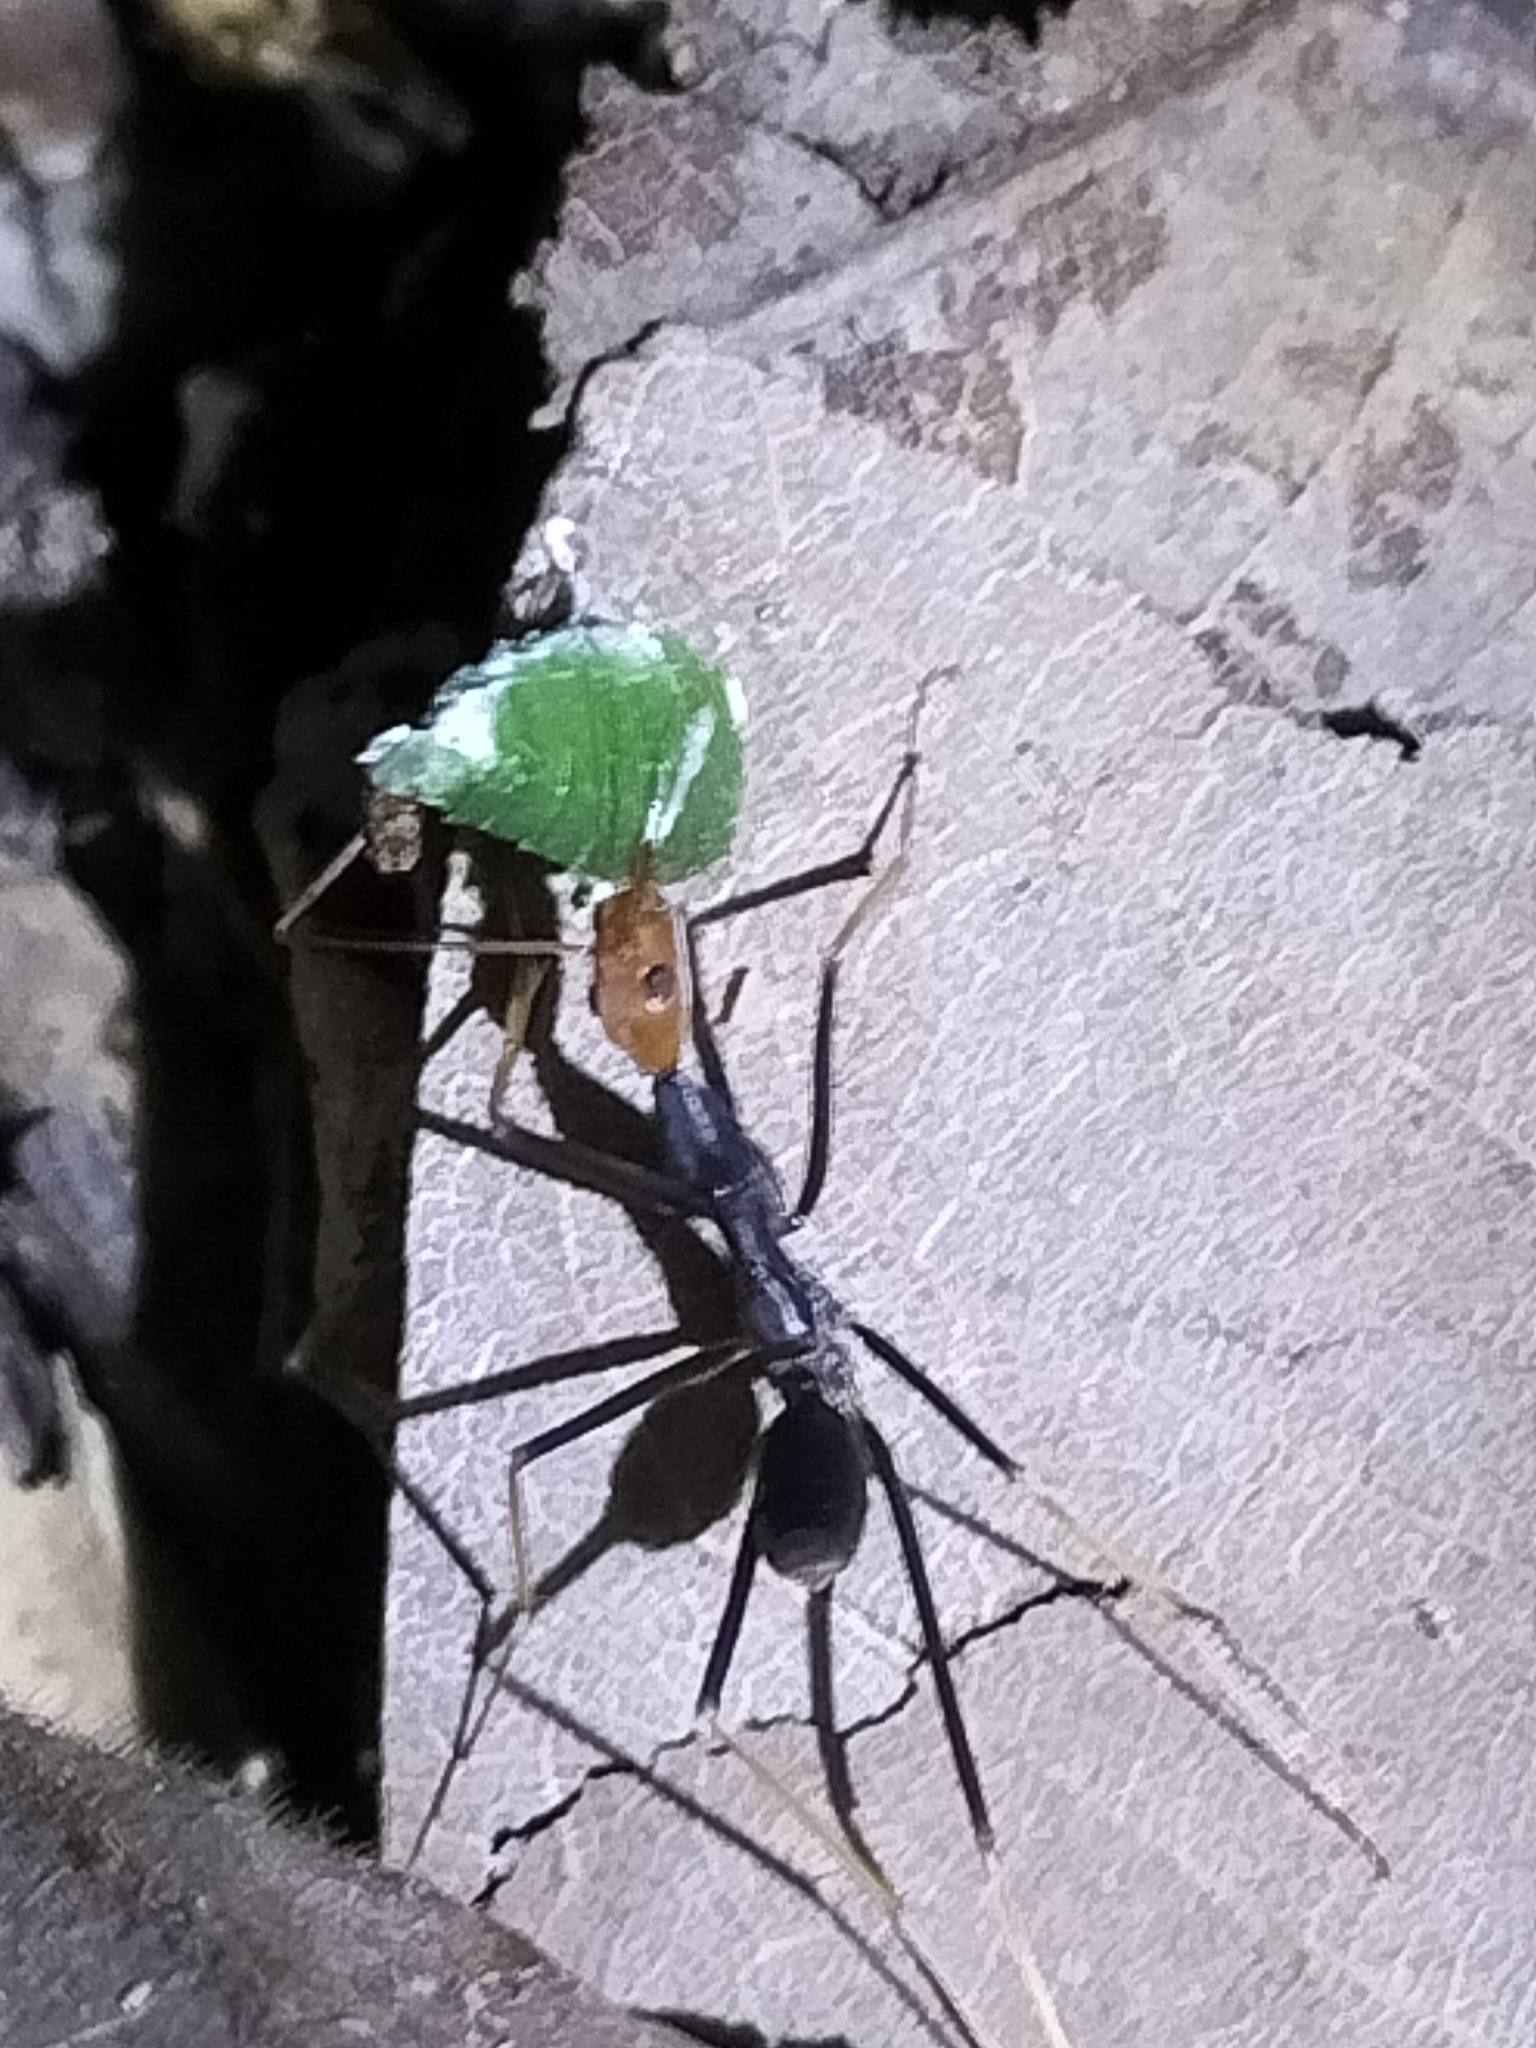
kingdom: Animalia
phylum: Arthropoda
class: Insecta
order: Hymenoptera
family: Formicidae
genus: Leptomyrmex
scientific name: Leptomyrmex ruficeps
